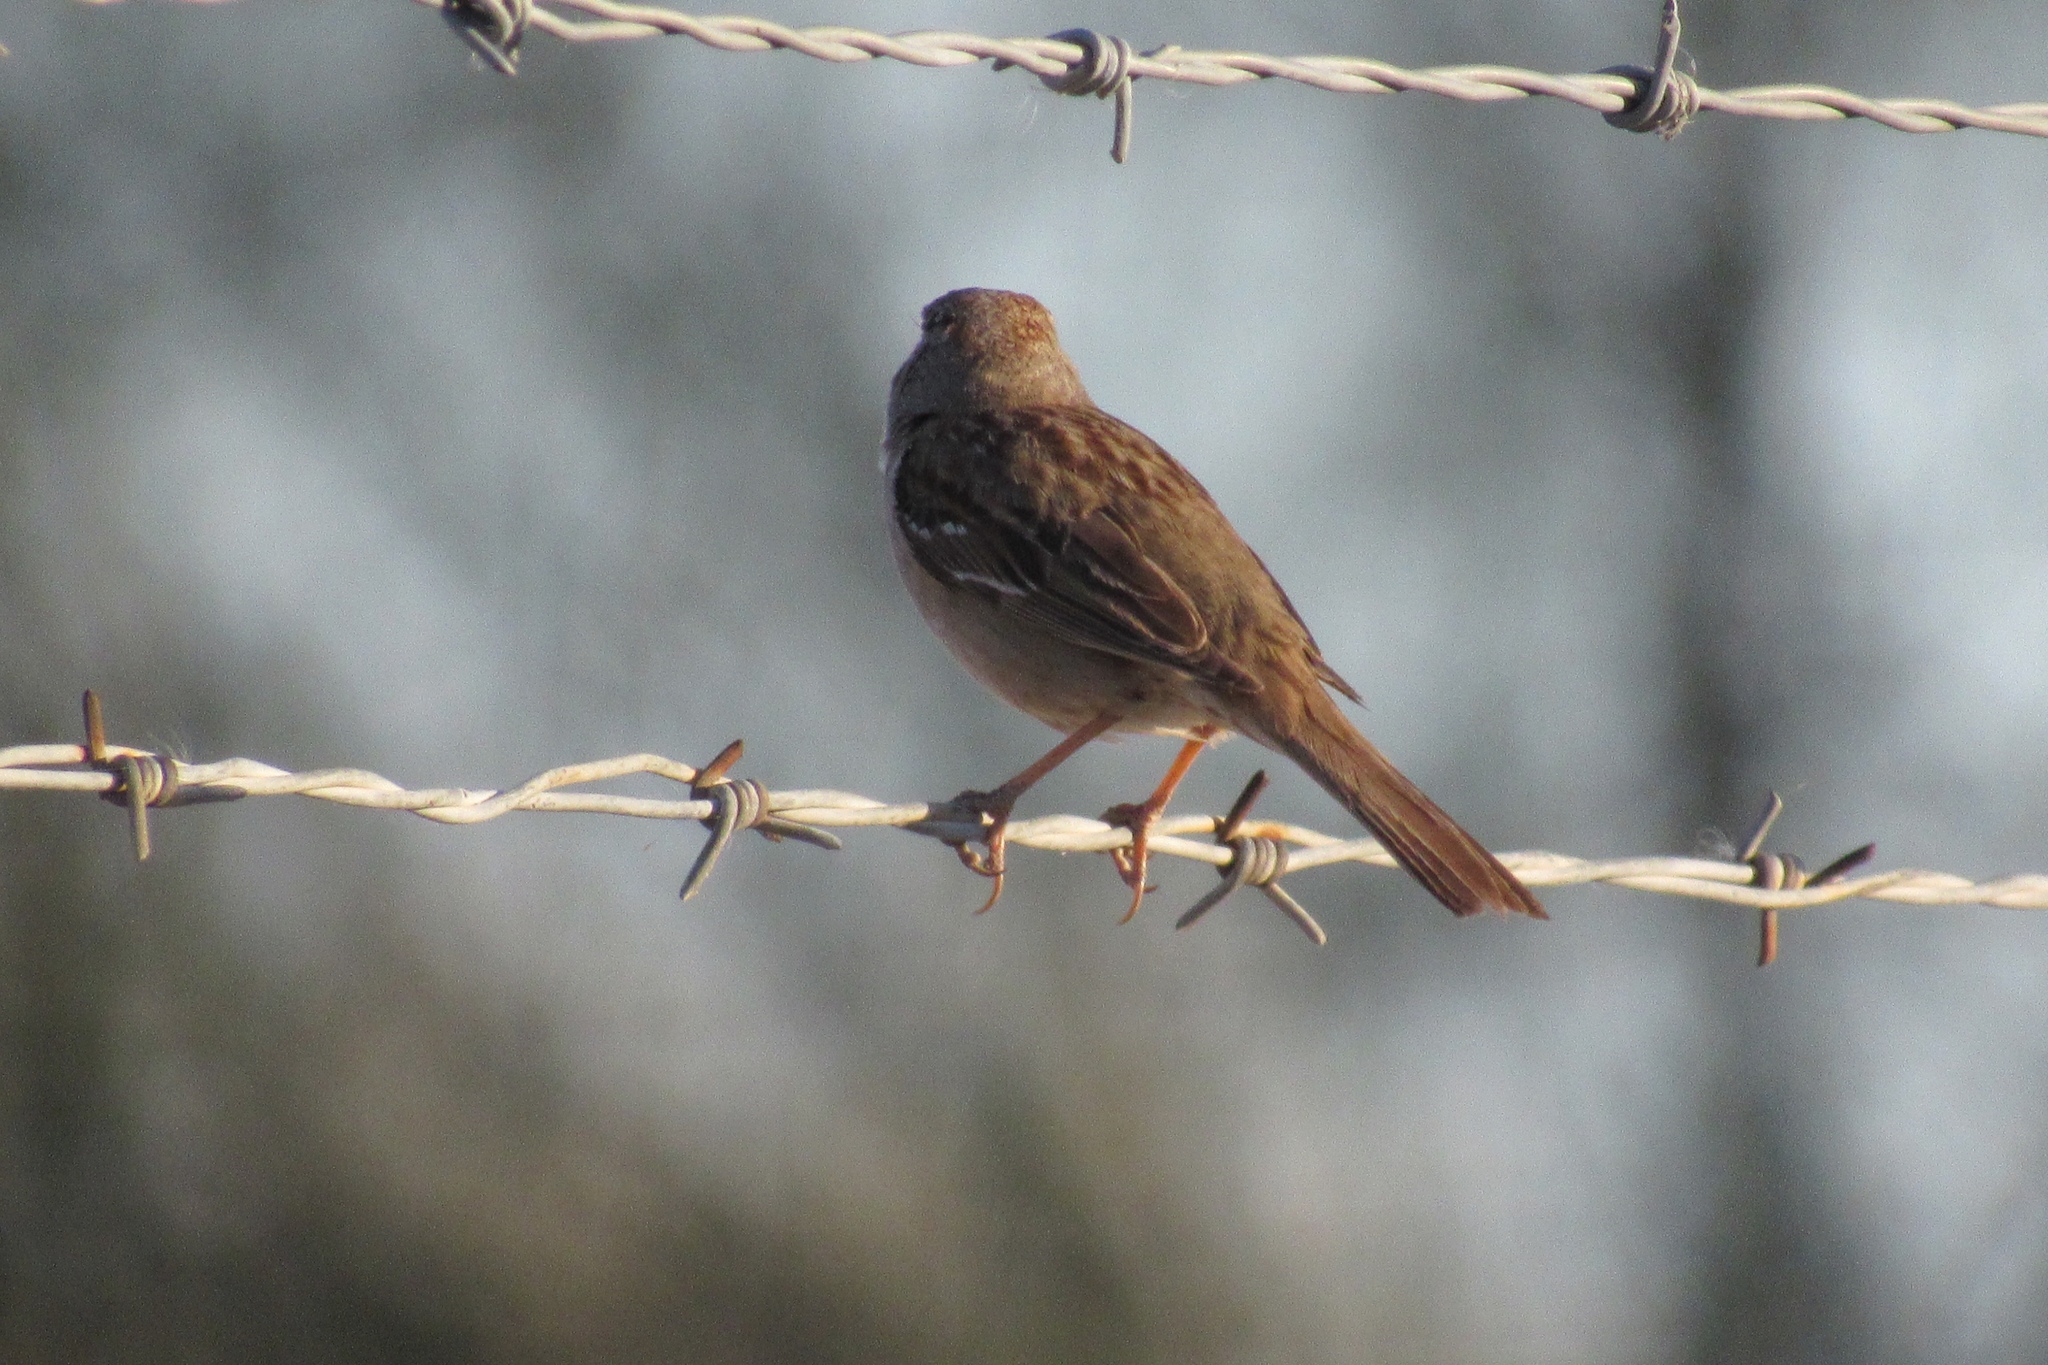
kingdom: Animalia
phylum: Chordata
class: Aves
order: Passeriformes
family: Passerellidae
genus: Zonotrichia
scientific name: Zonotrichia leucophrys
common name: White-crowned sparrow
